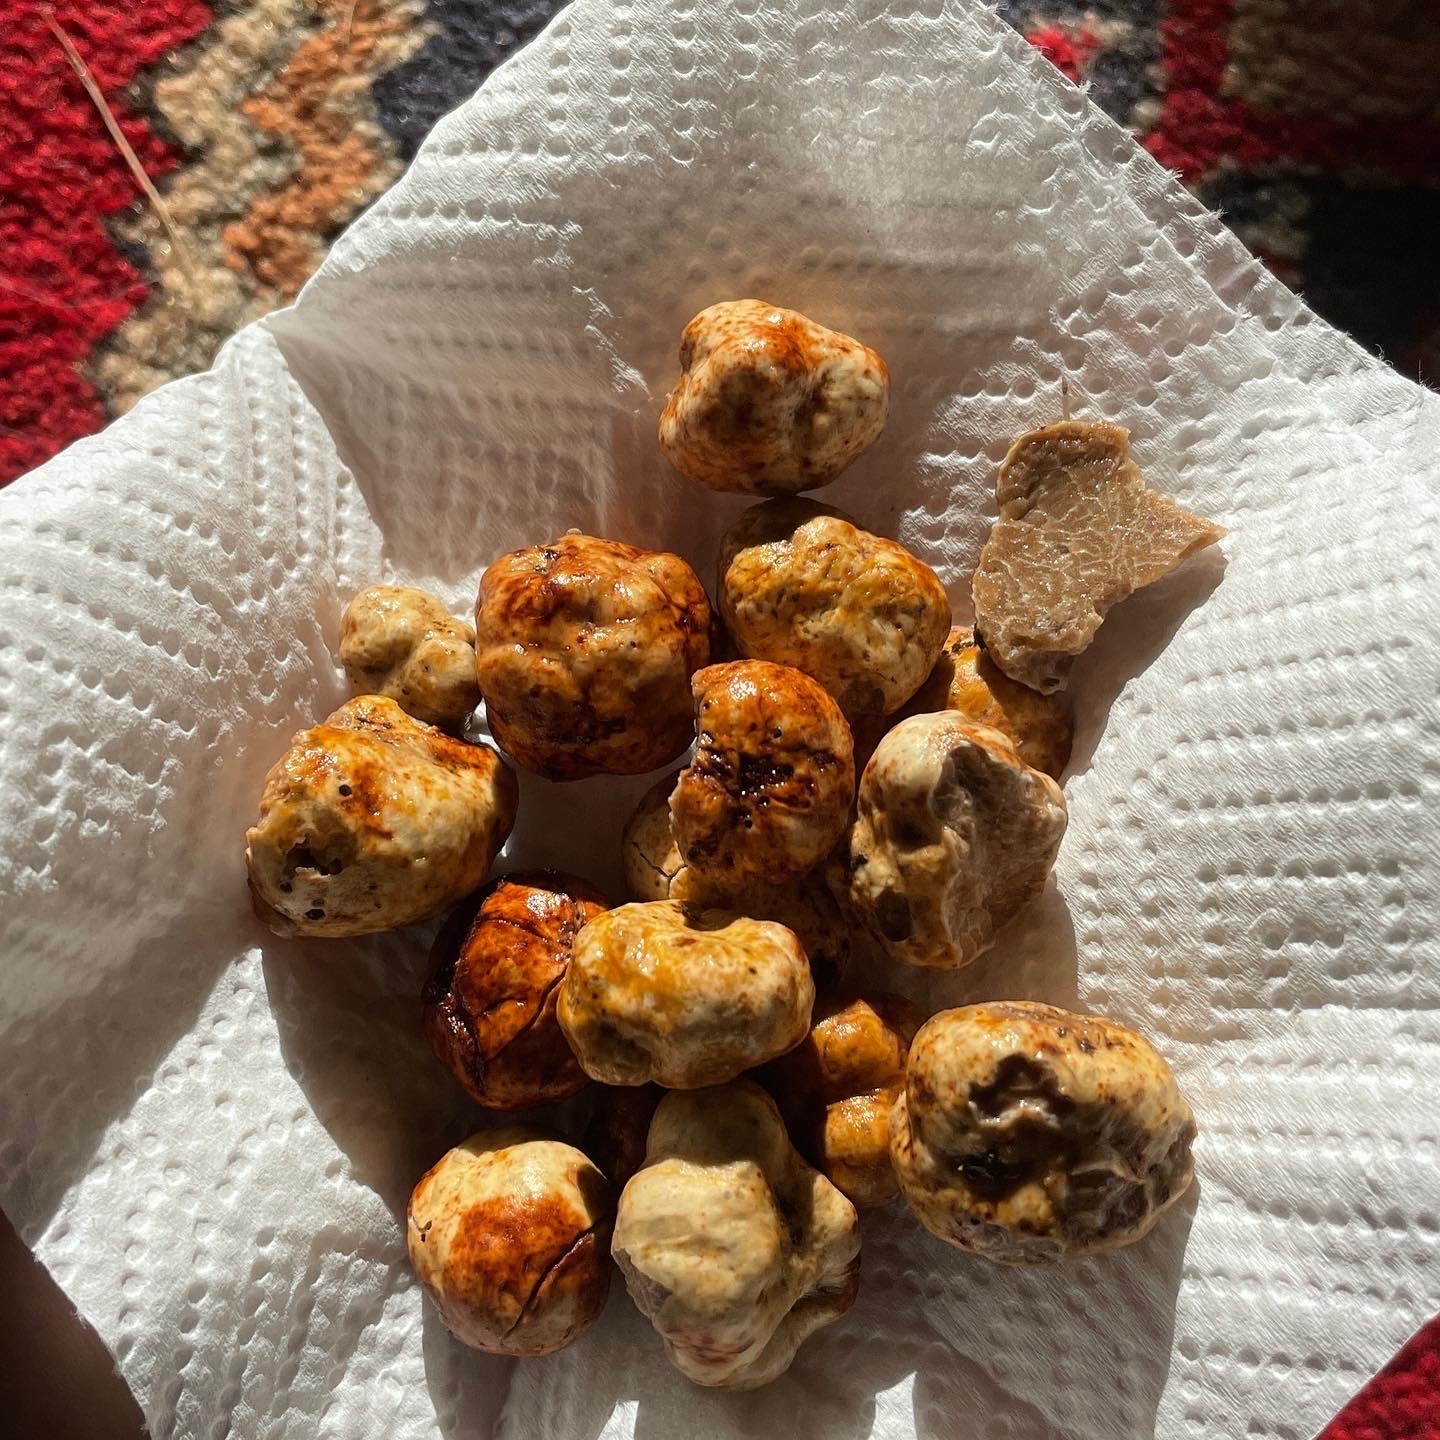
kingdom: Fungi
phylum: Ascomycota
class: Pezizomycetes
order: Pezizales
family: Tuberaceae
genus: Tuber
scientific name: Tuber oregonense
